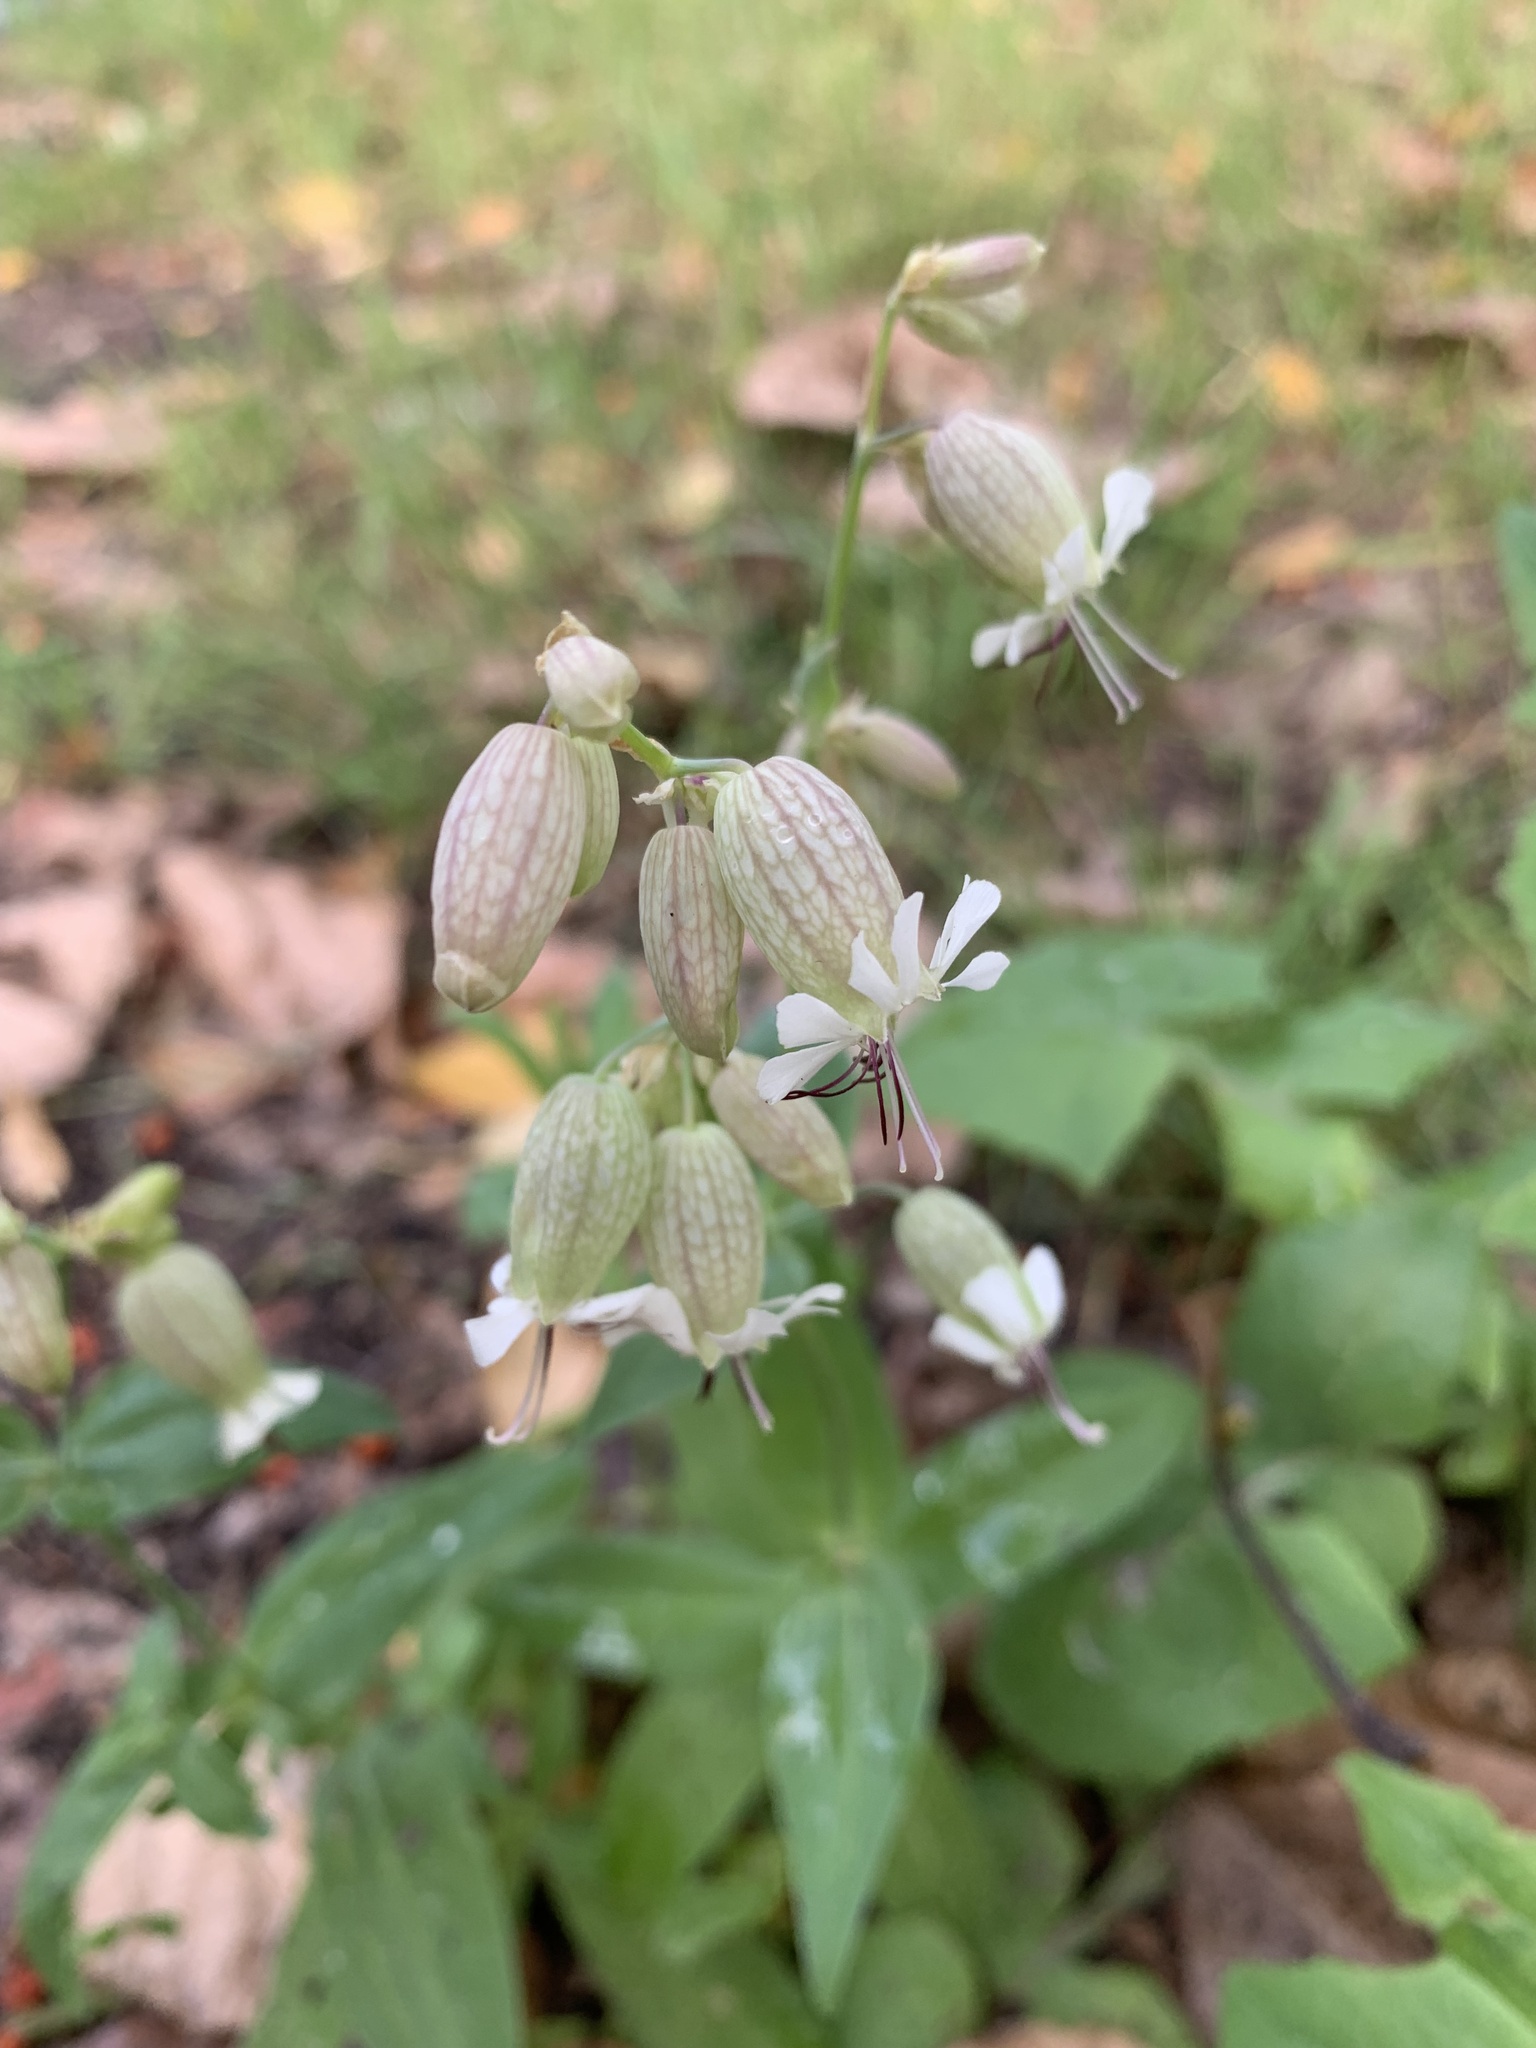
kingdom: Plantae
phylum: Tracheophyta
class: Magnoliopsida
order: Caryophyllales
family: Caryophyllaceae
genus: Silene
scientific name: Silene vulgaris
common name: Bladder campion
